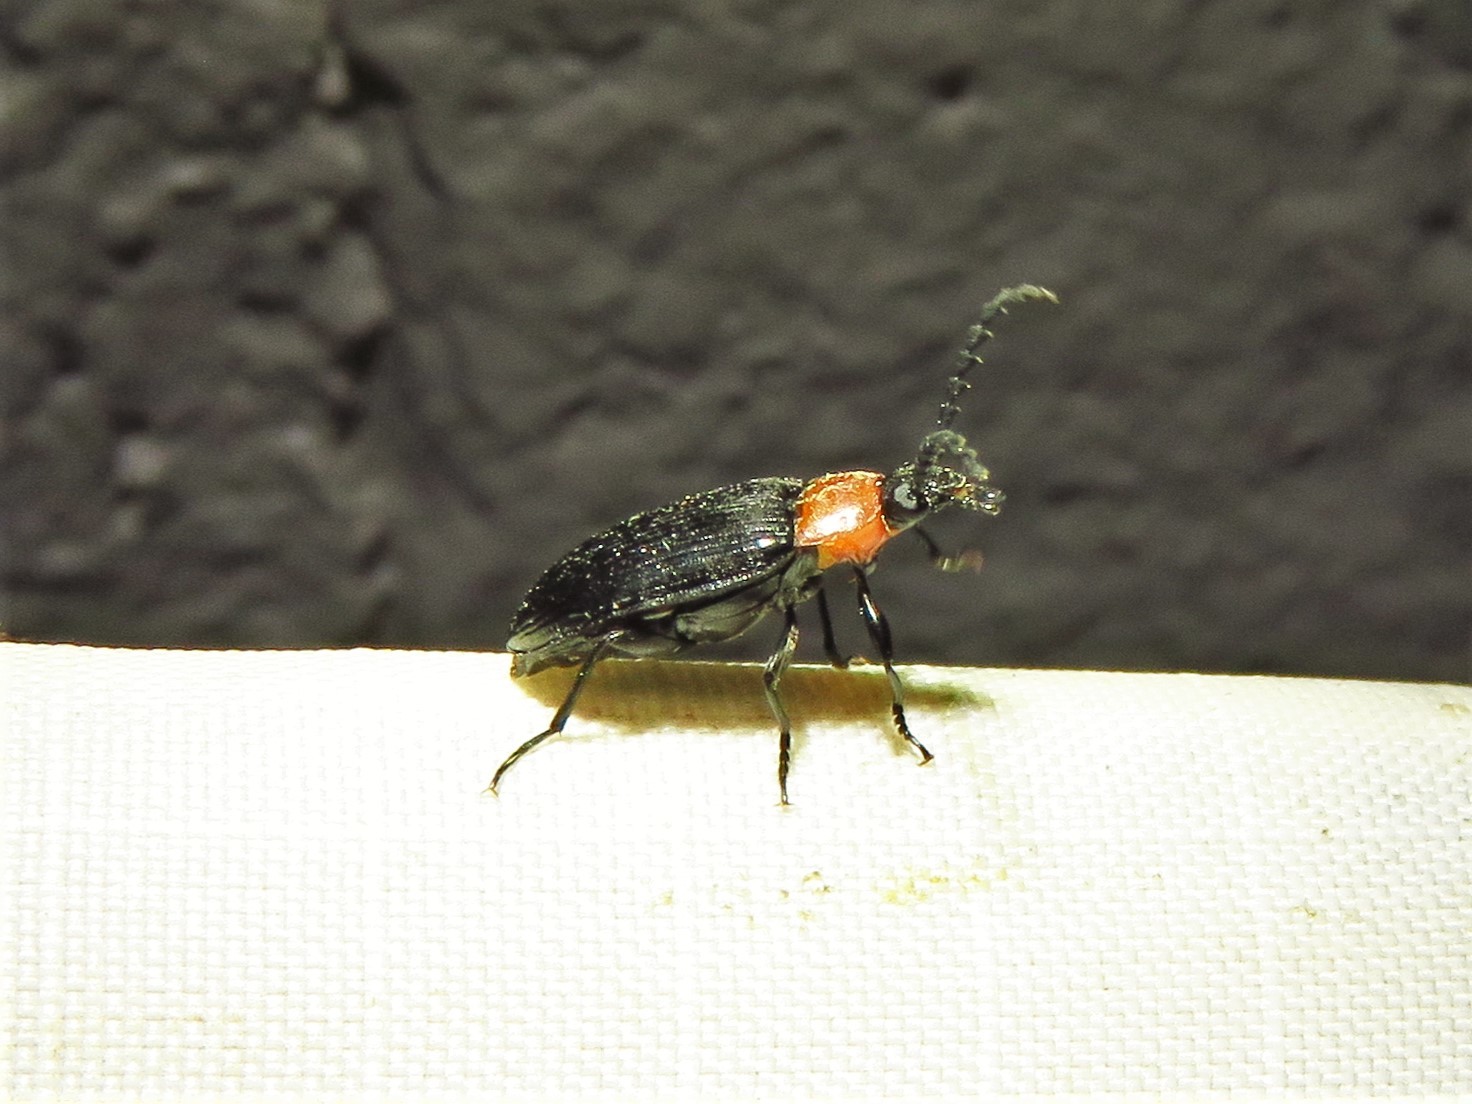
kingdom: Animalia
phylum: Arthropoda
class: Insecta
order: Coleoptera
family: Tenebrionidae
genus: Chromatia
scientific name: Chromatia amoena
